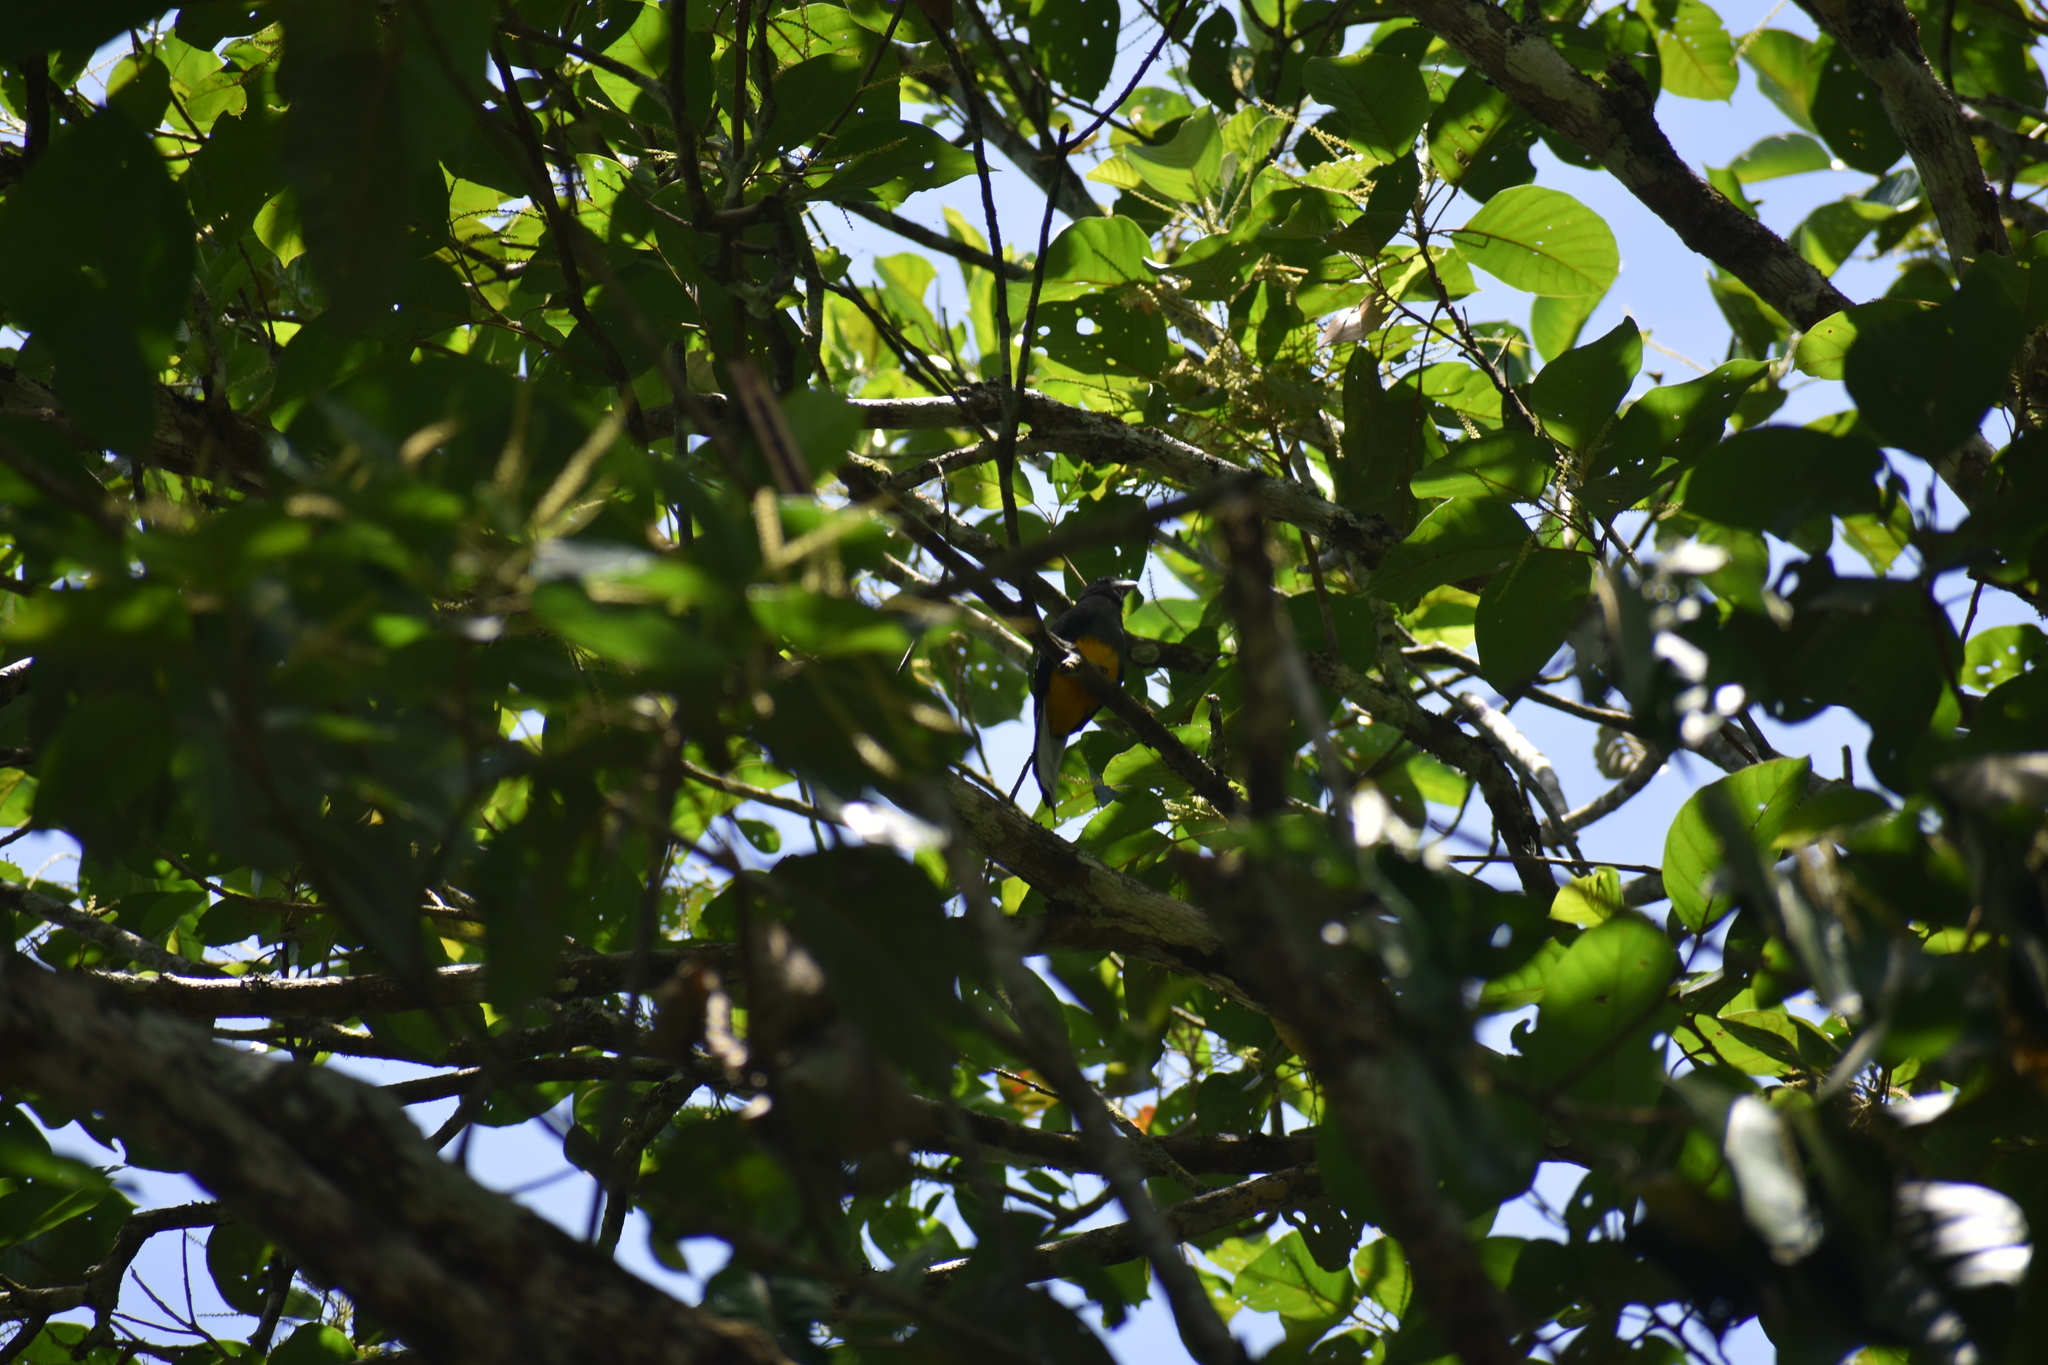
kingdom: Animalia
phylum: Chordata
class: Aves
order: Trogoniformes
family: Trogonidae
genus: Trogon
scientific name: Trogon caligatus
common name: Gartered trogon
